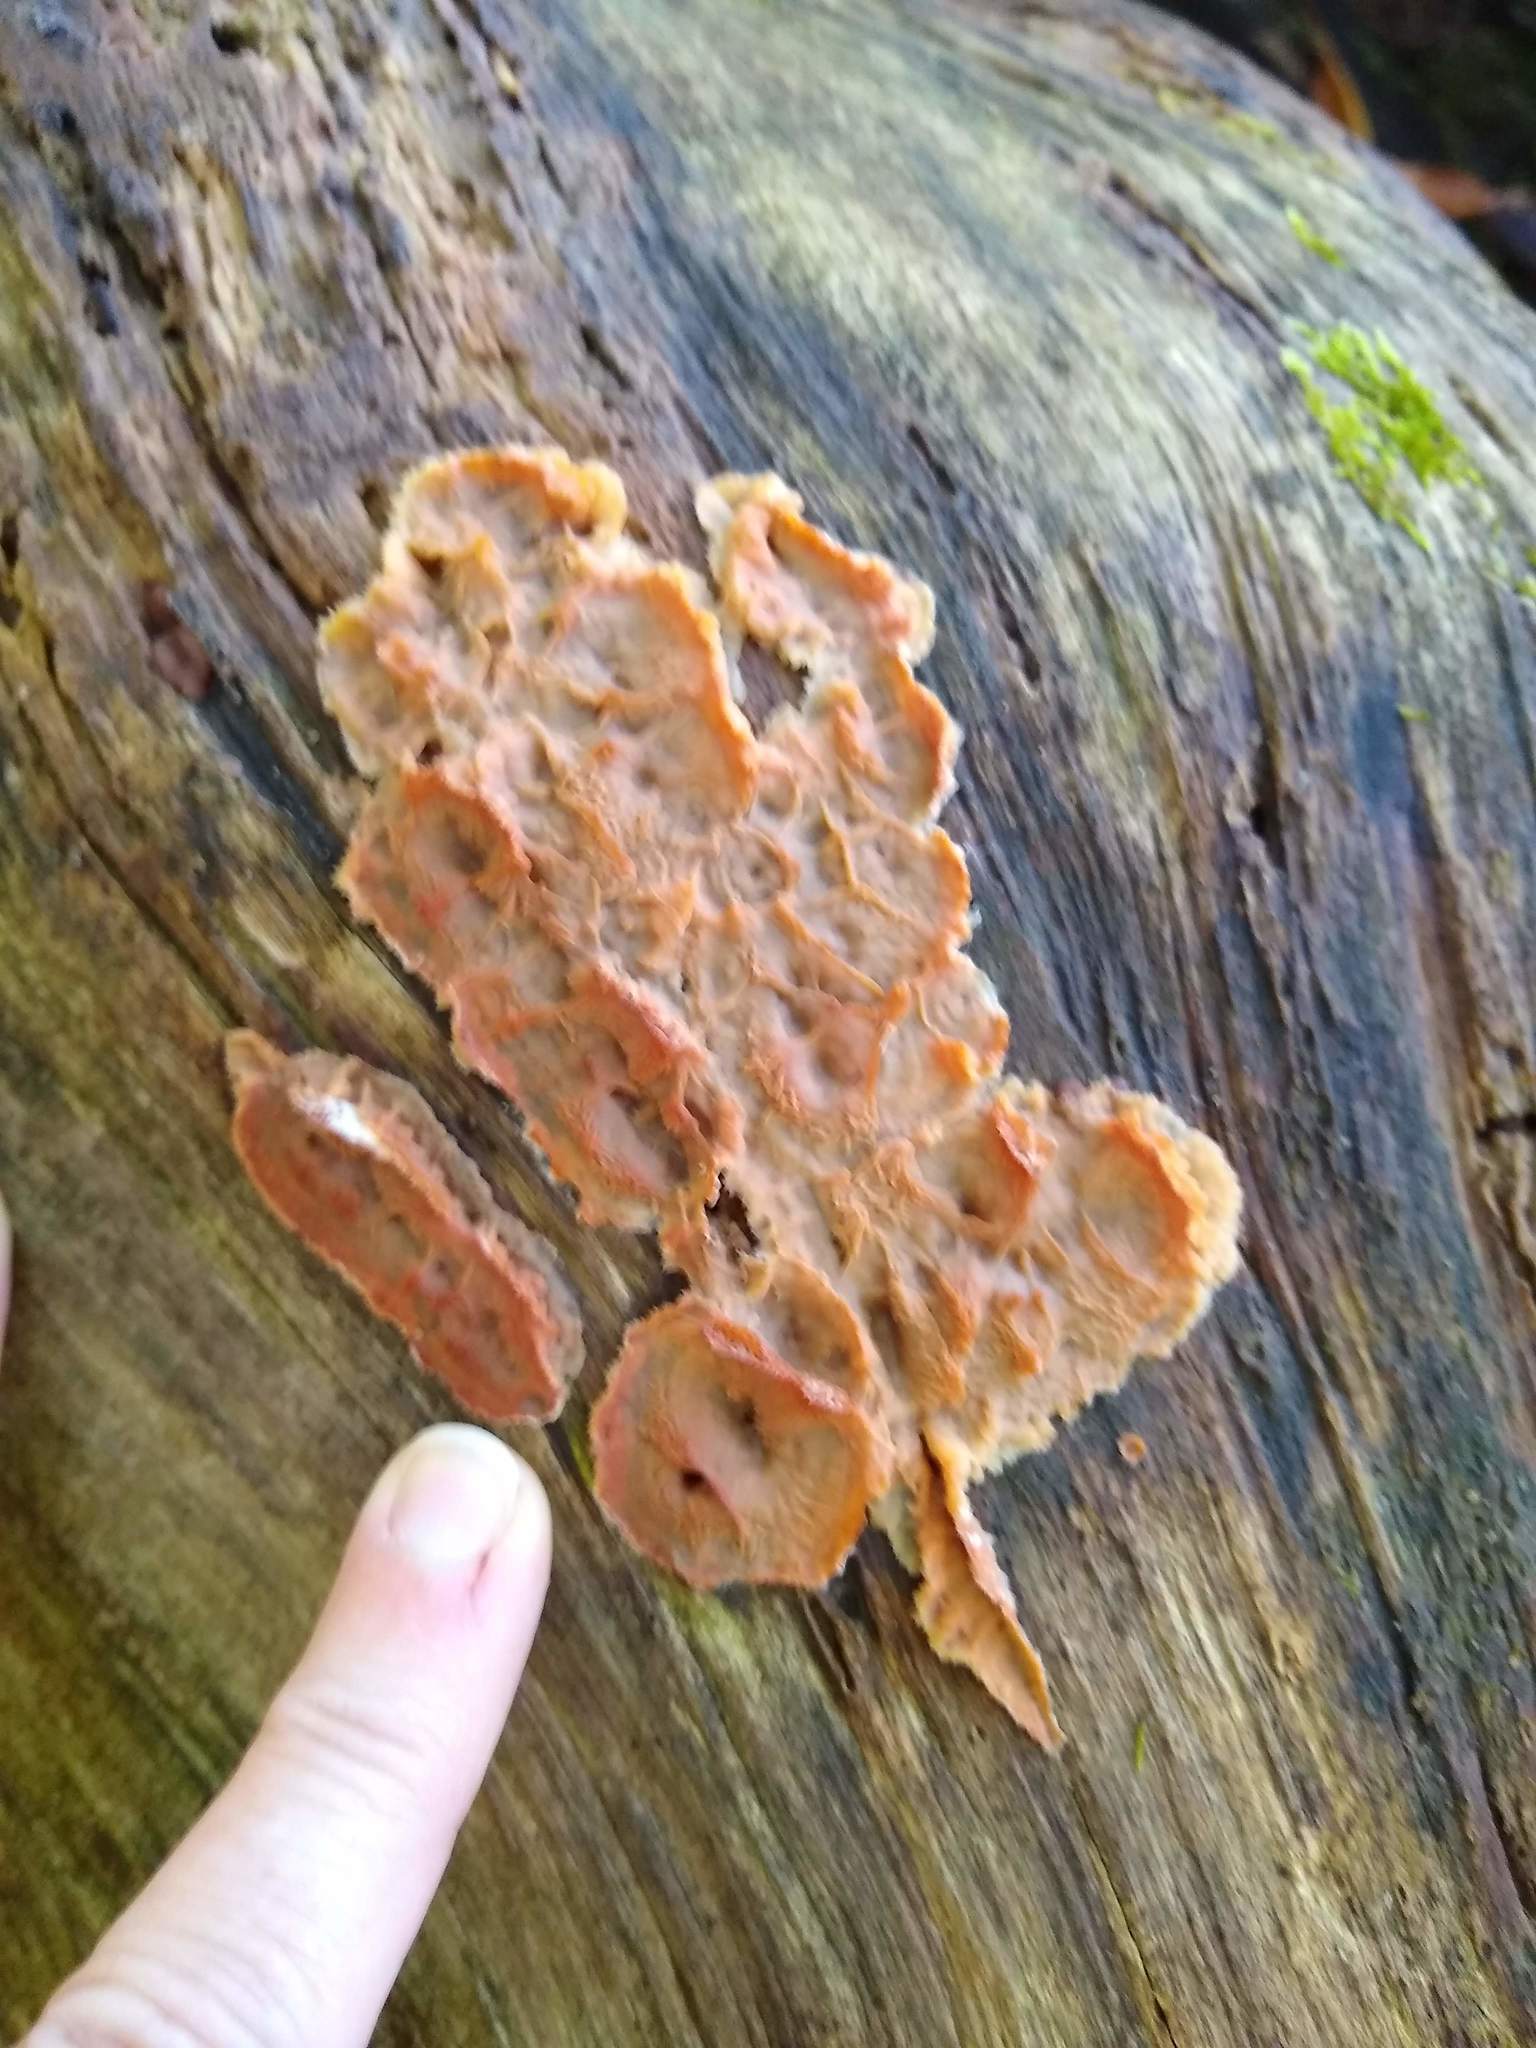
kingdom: Fungi
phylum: Basidiomycota
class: Agaricomycetes
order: Polyporales
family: Meruliaceae
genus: Phlebia
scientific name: Phlebia tremellosa
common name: Jelly rot
